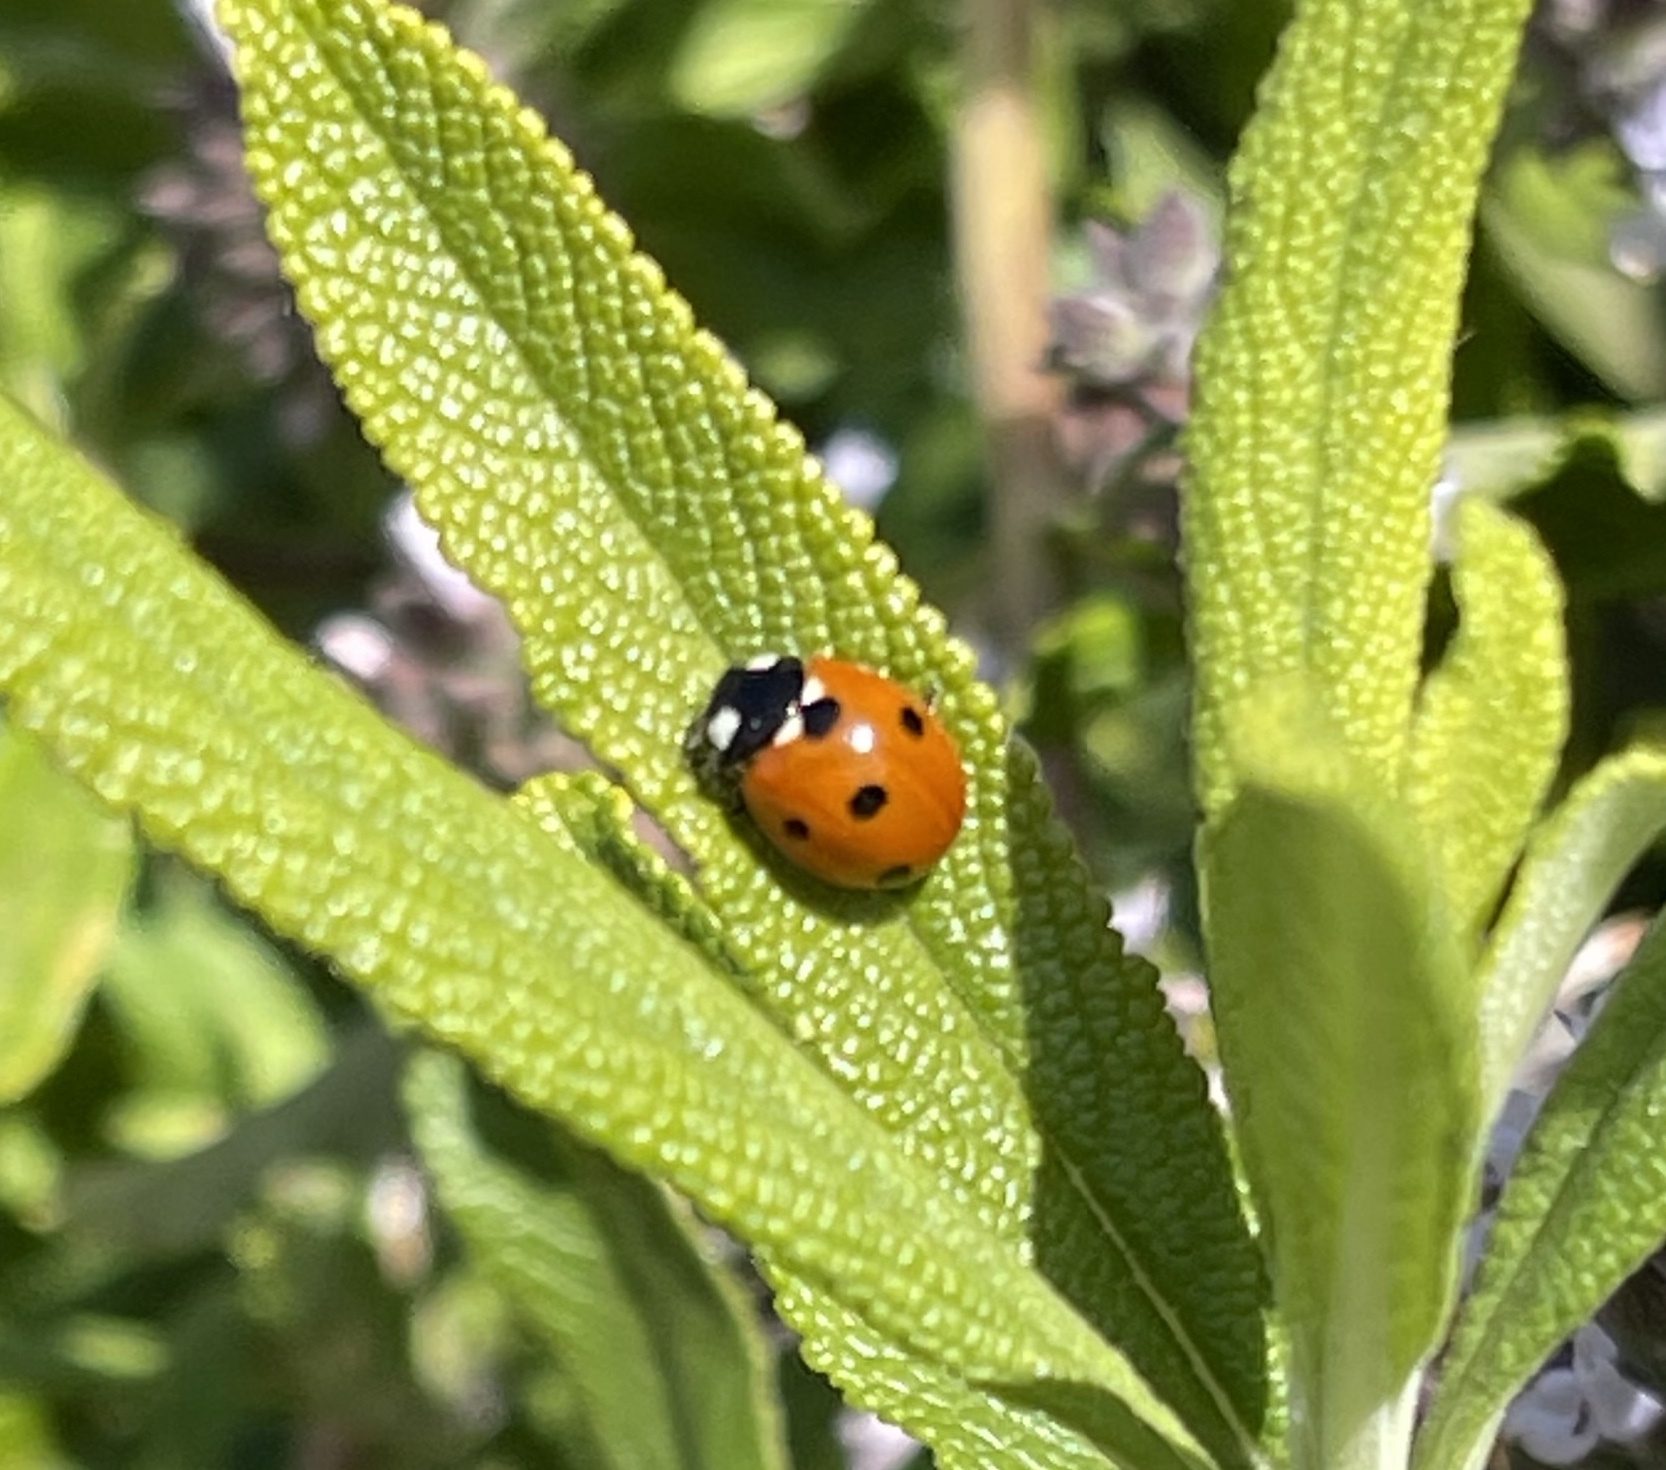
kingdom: Animalia
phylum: Arthropoda
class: Insecta
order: Coleoptera
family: Coccinellidae
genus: Coccinella
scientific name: Coccinella septempunctata
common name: Sevenspotted lady beetle
